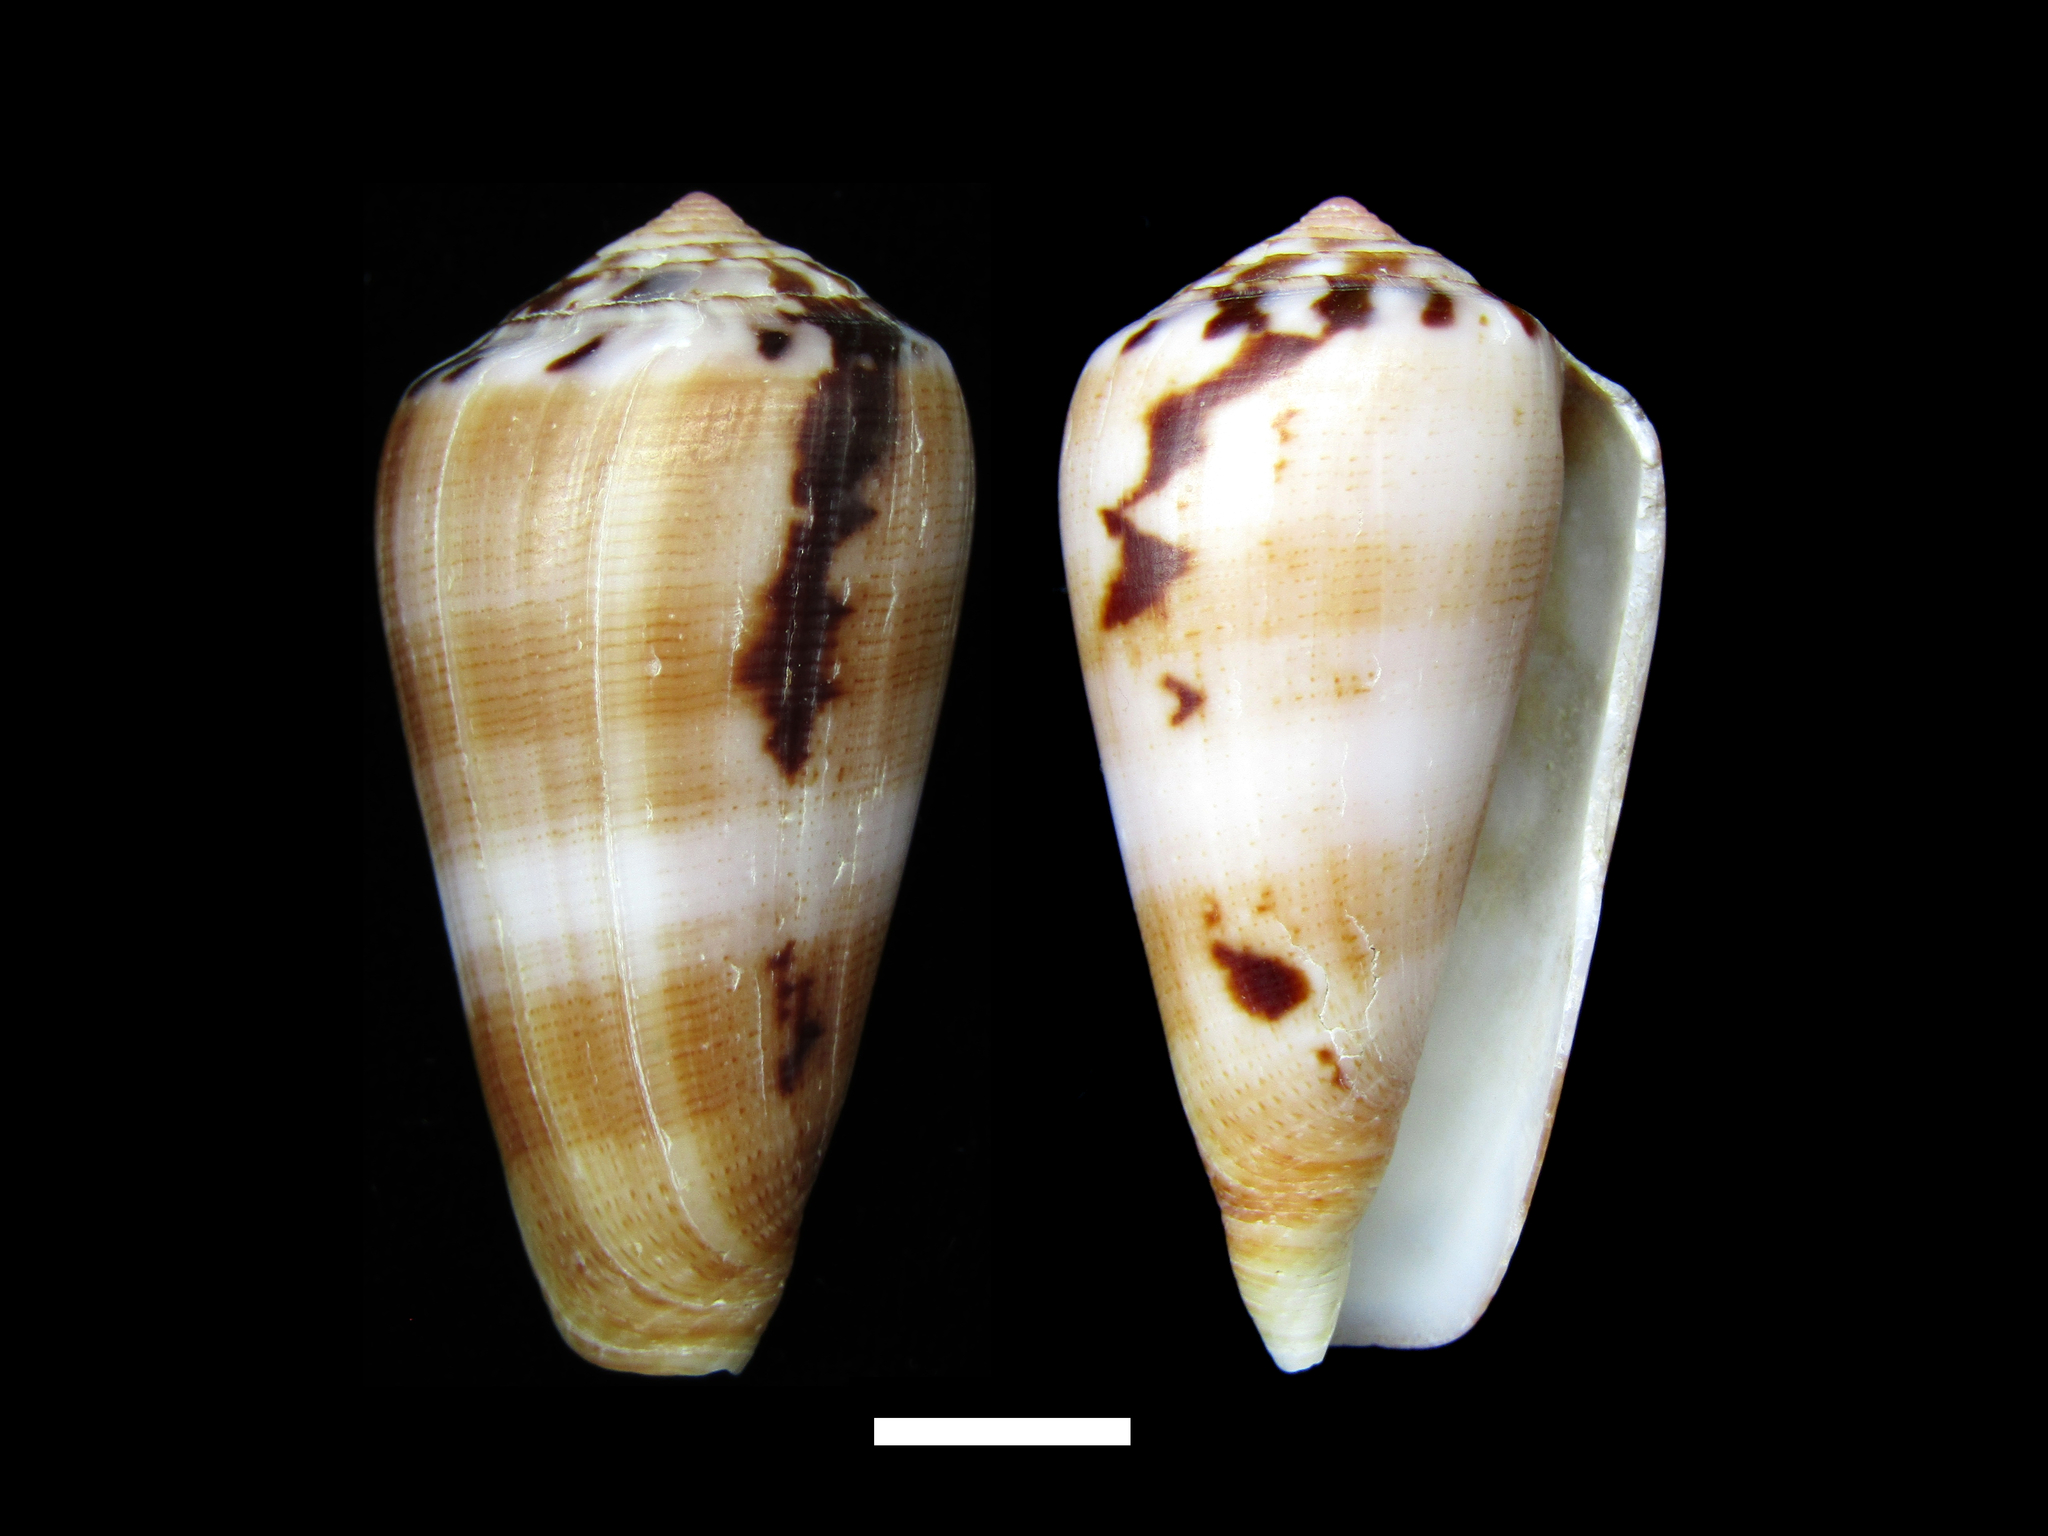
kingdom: Animalia
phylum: Mollusca
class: Gastropoda
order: Neogastropoda
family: Conidae
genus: Conus
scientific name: Conus fulmen
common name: Fulmen's cone
